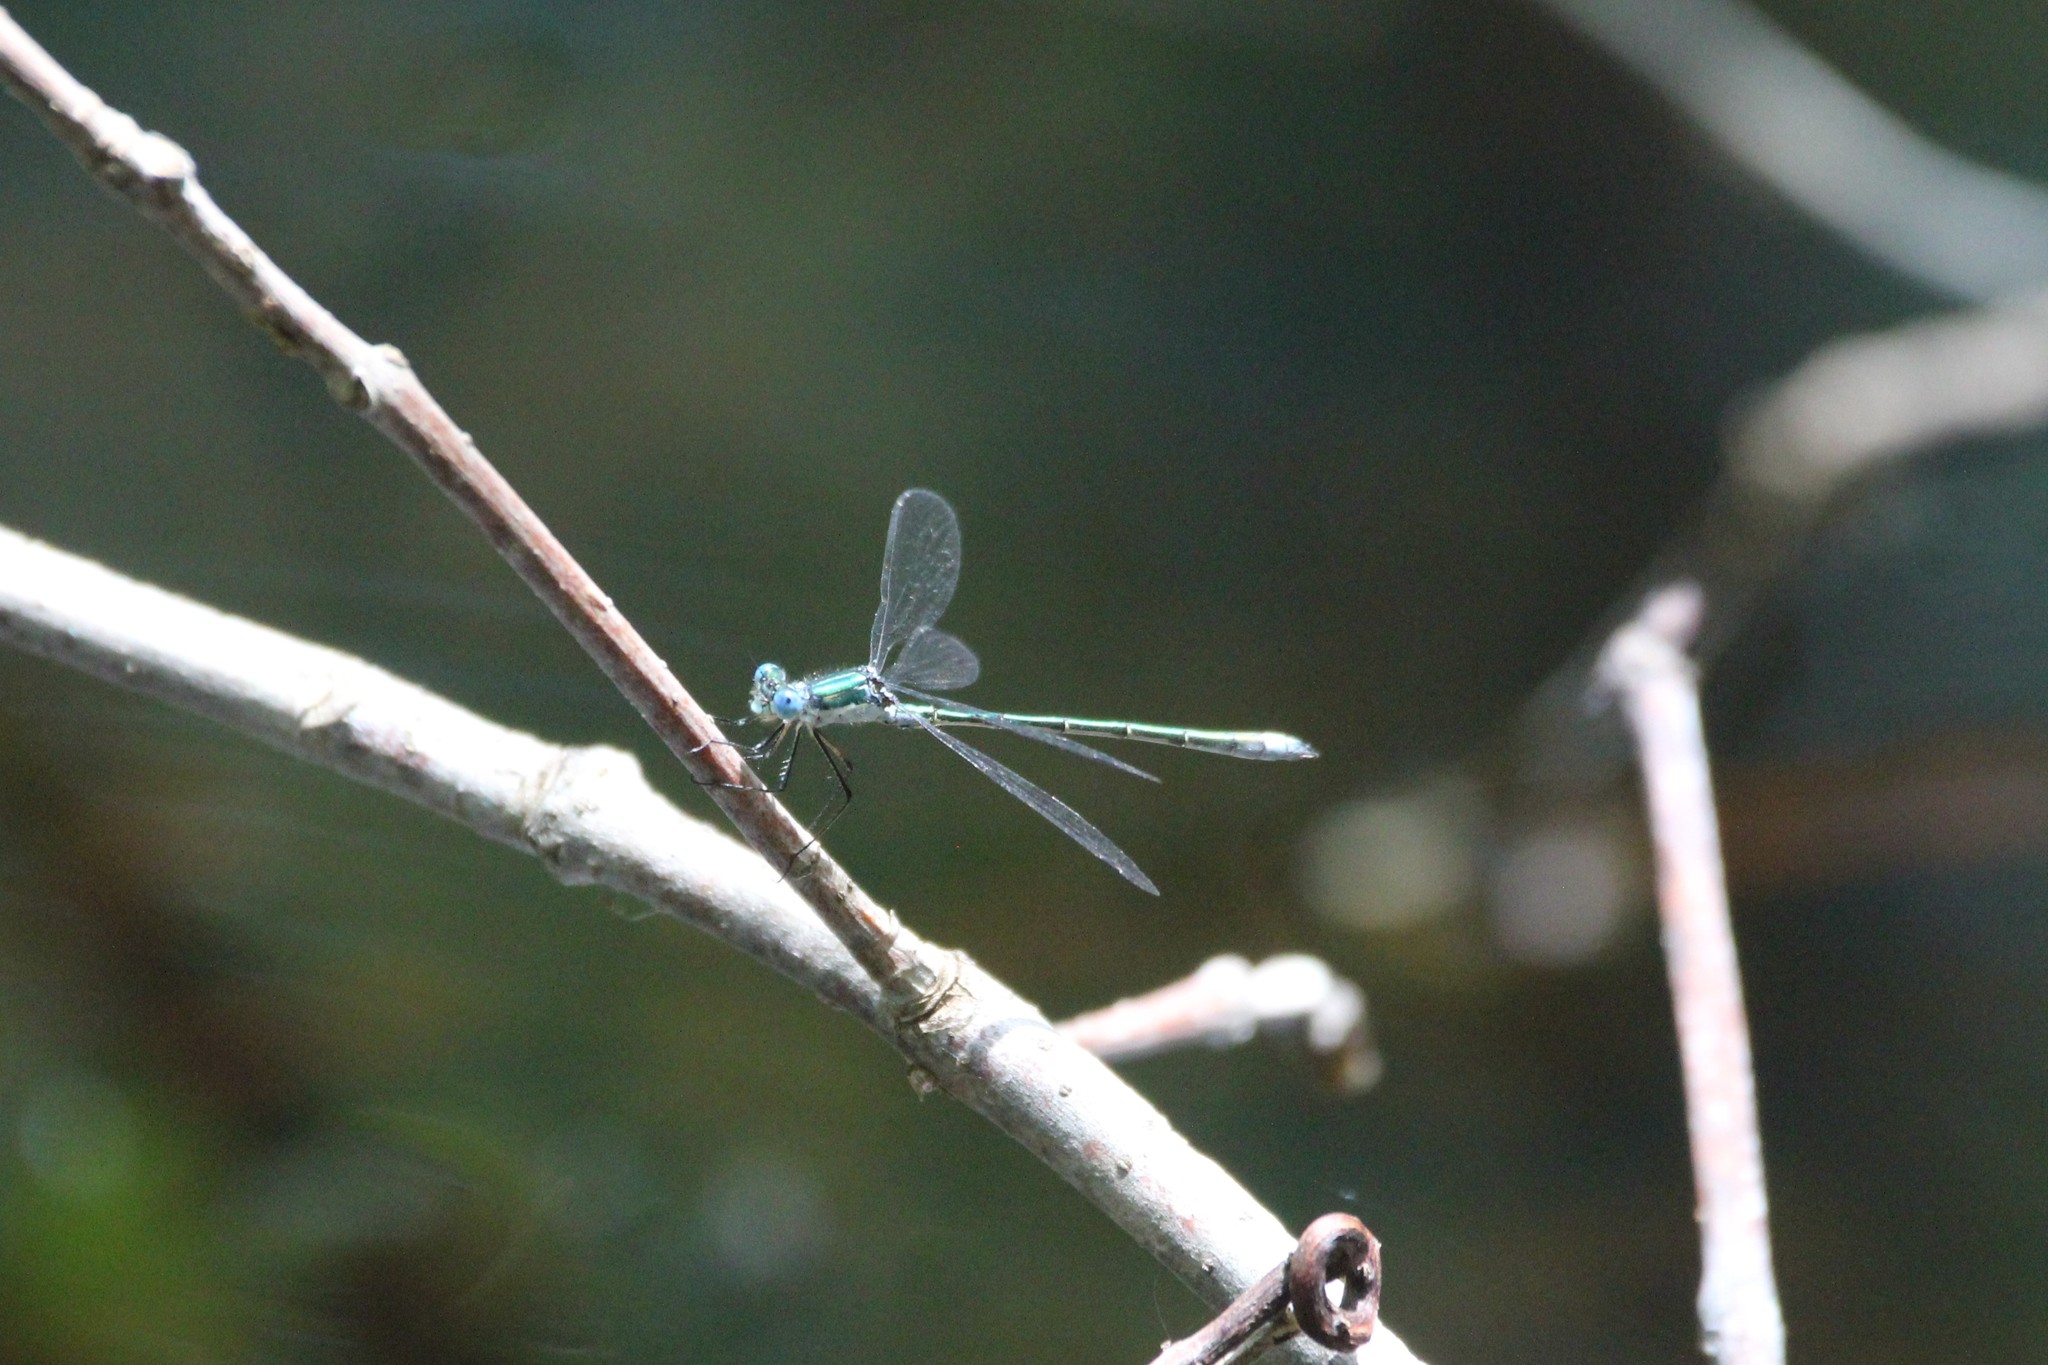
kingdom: Animalia
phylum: Arthropoda
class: Insecta
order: Odonata
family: Lestidae
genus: Lestes
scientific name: Lestes dryas
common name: Scarce emerald damselfly
